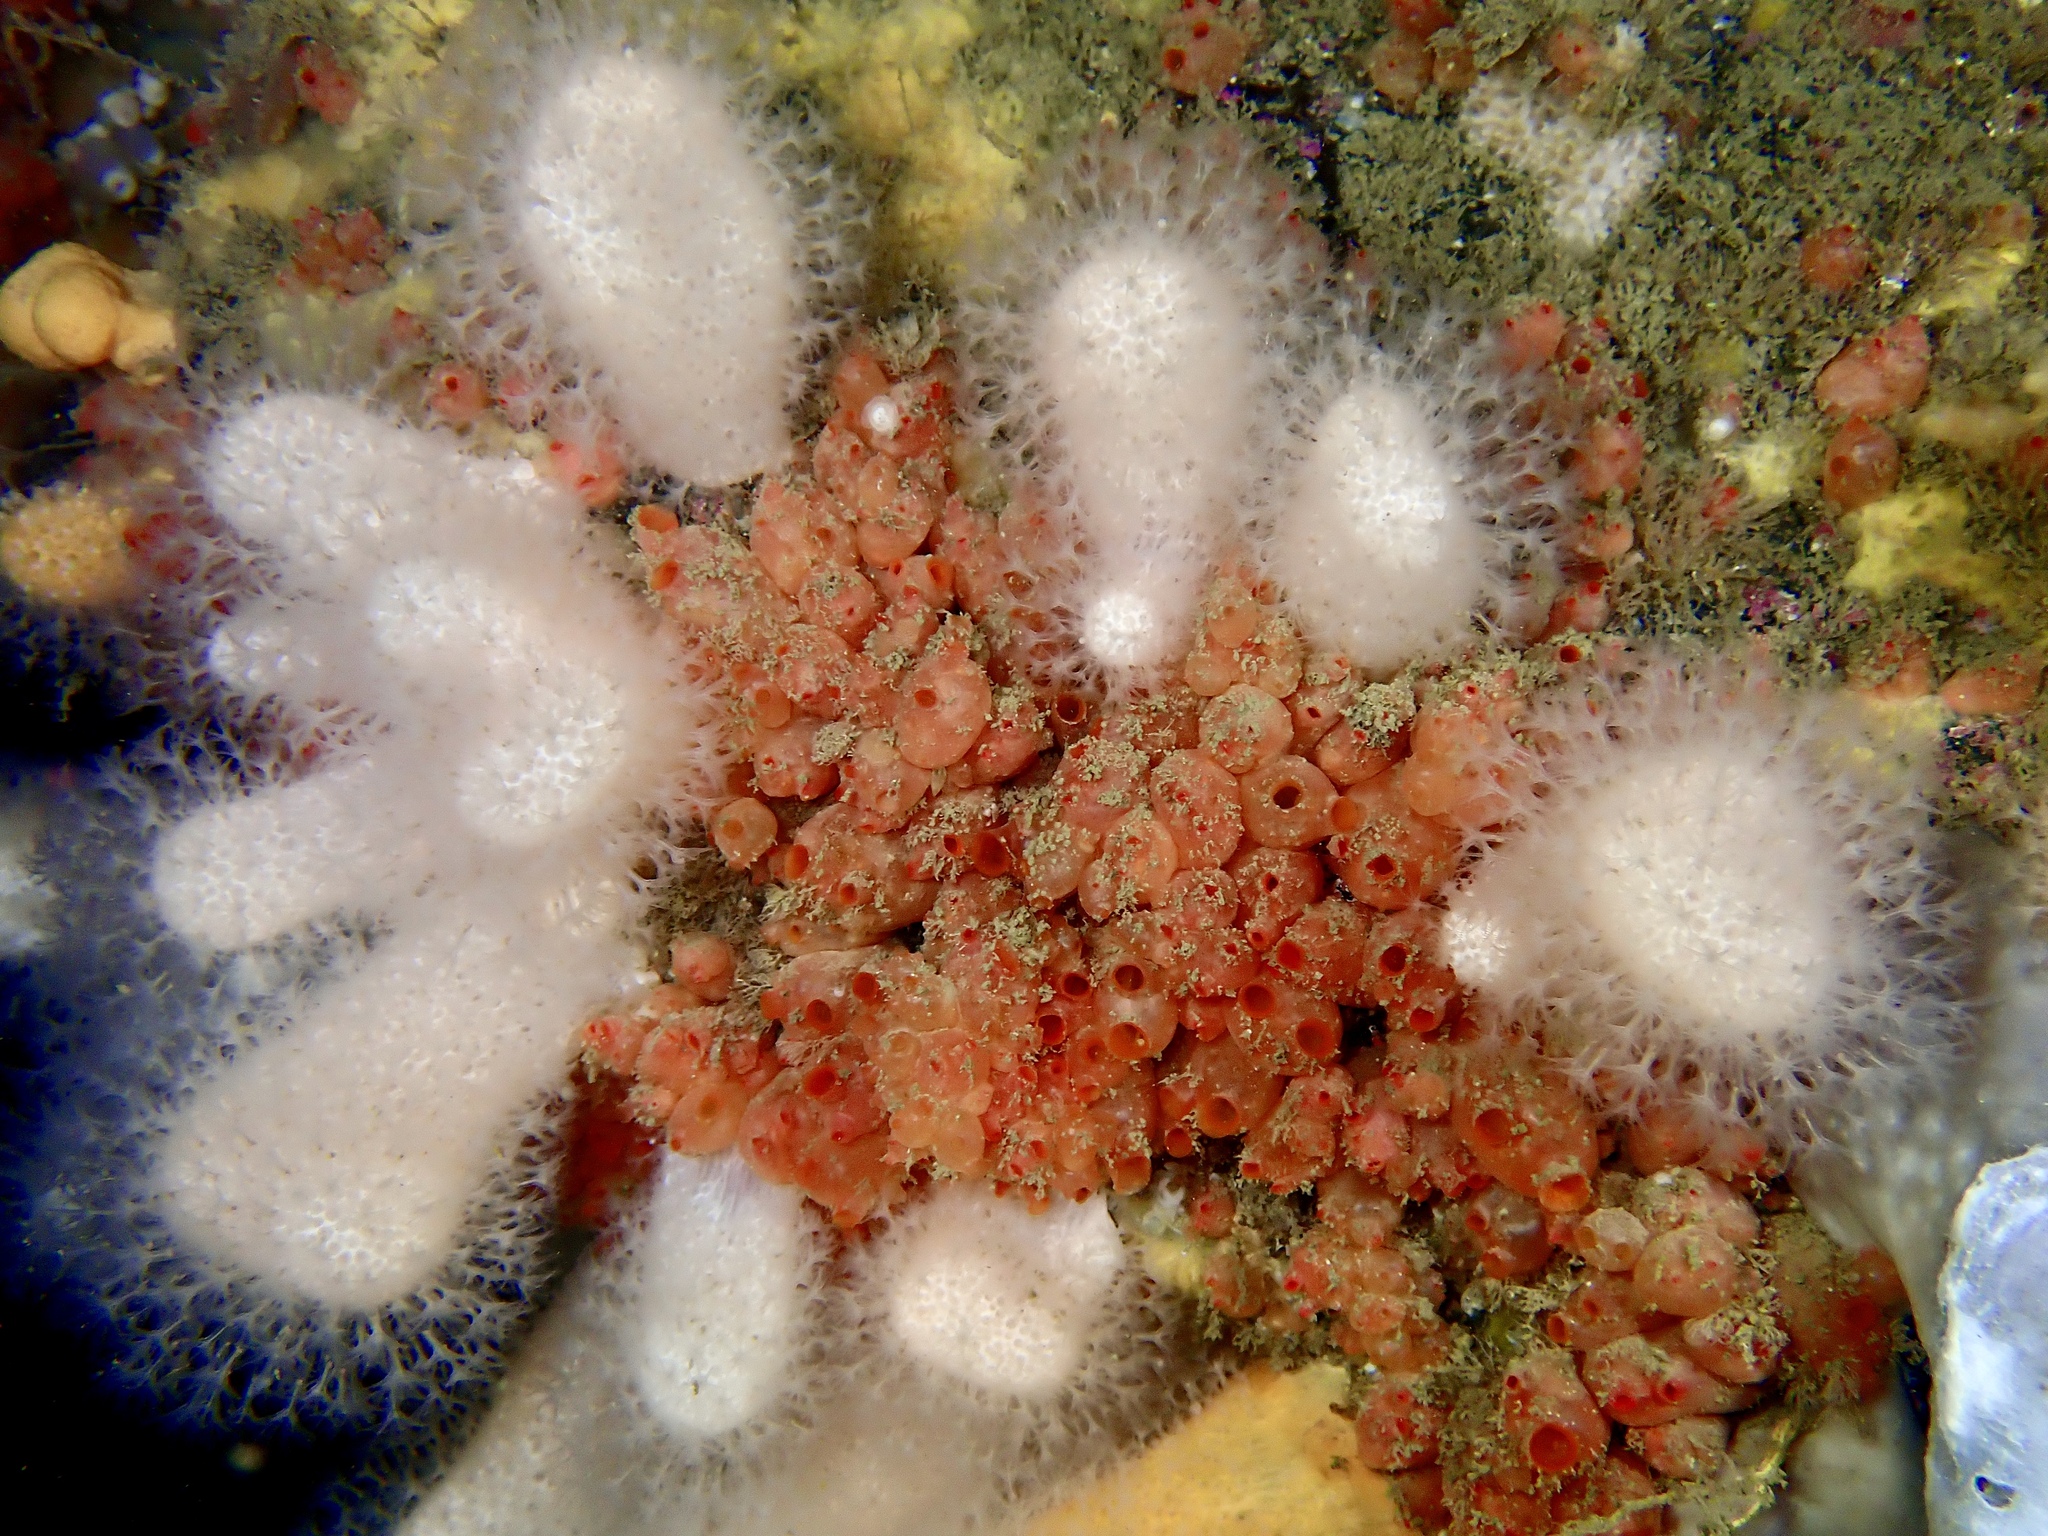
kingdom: Animalia
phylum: Chordata
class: Ascidiacea
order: Stolidobranchia
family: Styelidae
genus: Dendrodoa
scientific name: Dendrodoa grossularia
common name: Baked bean ascidian
